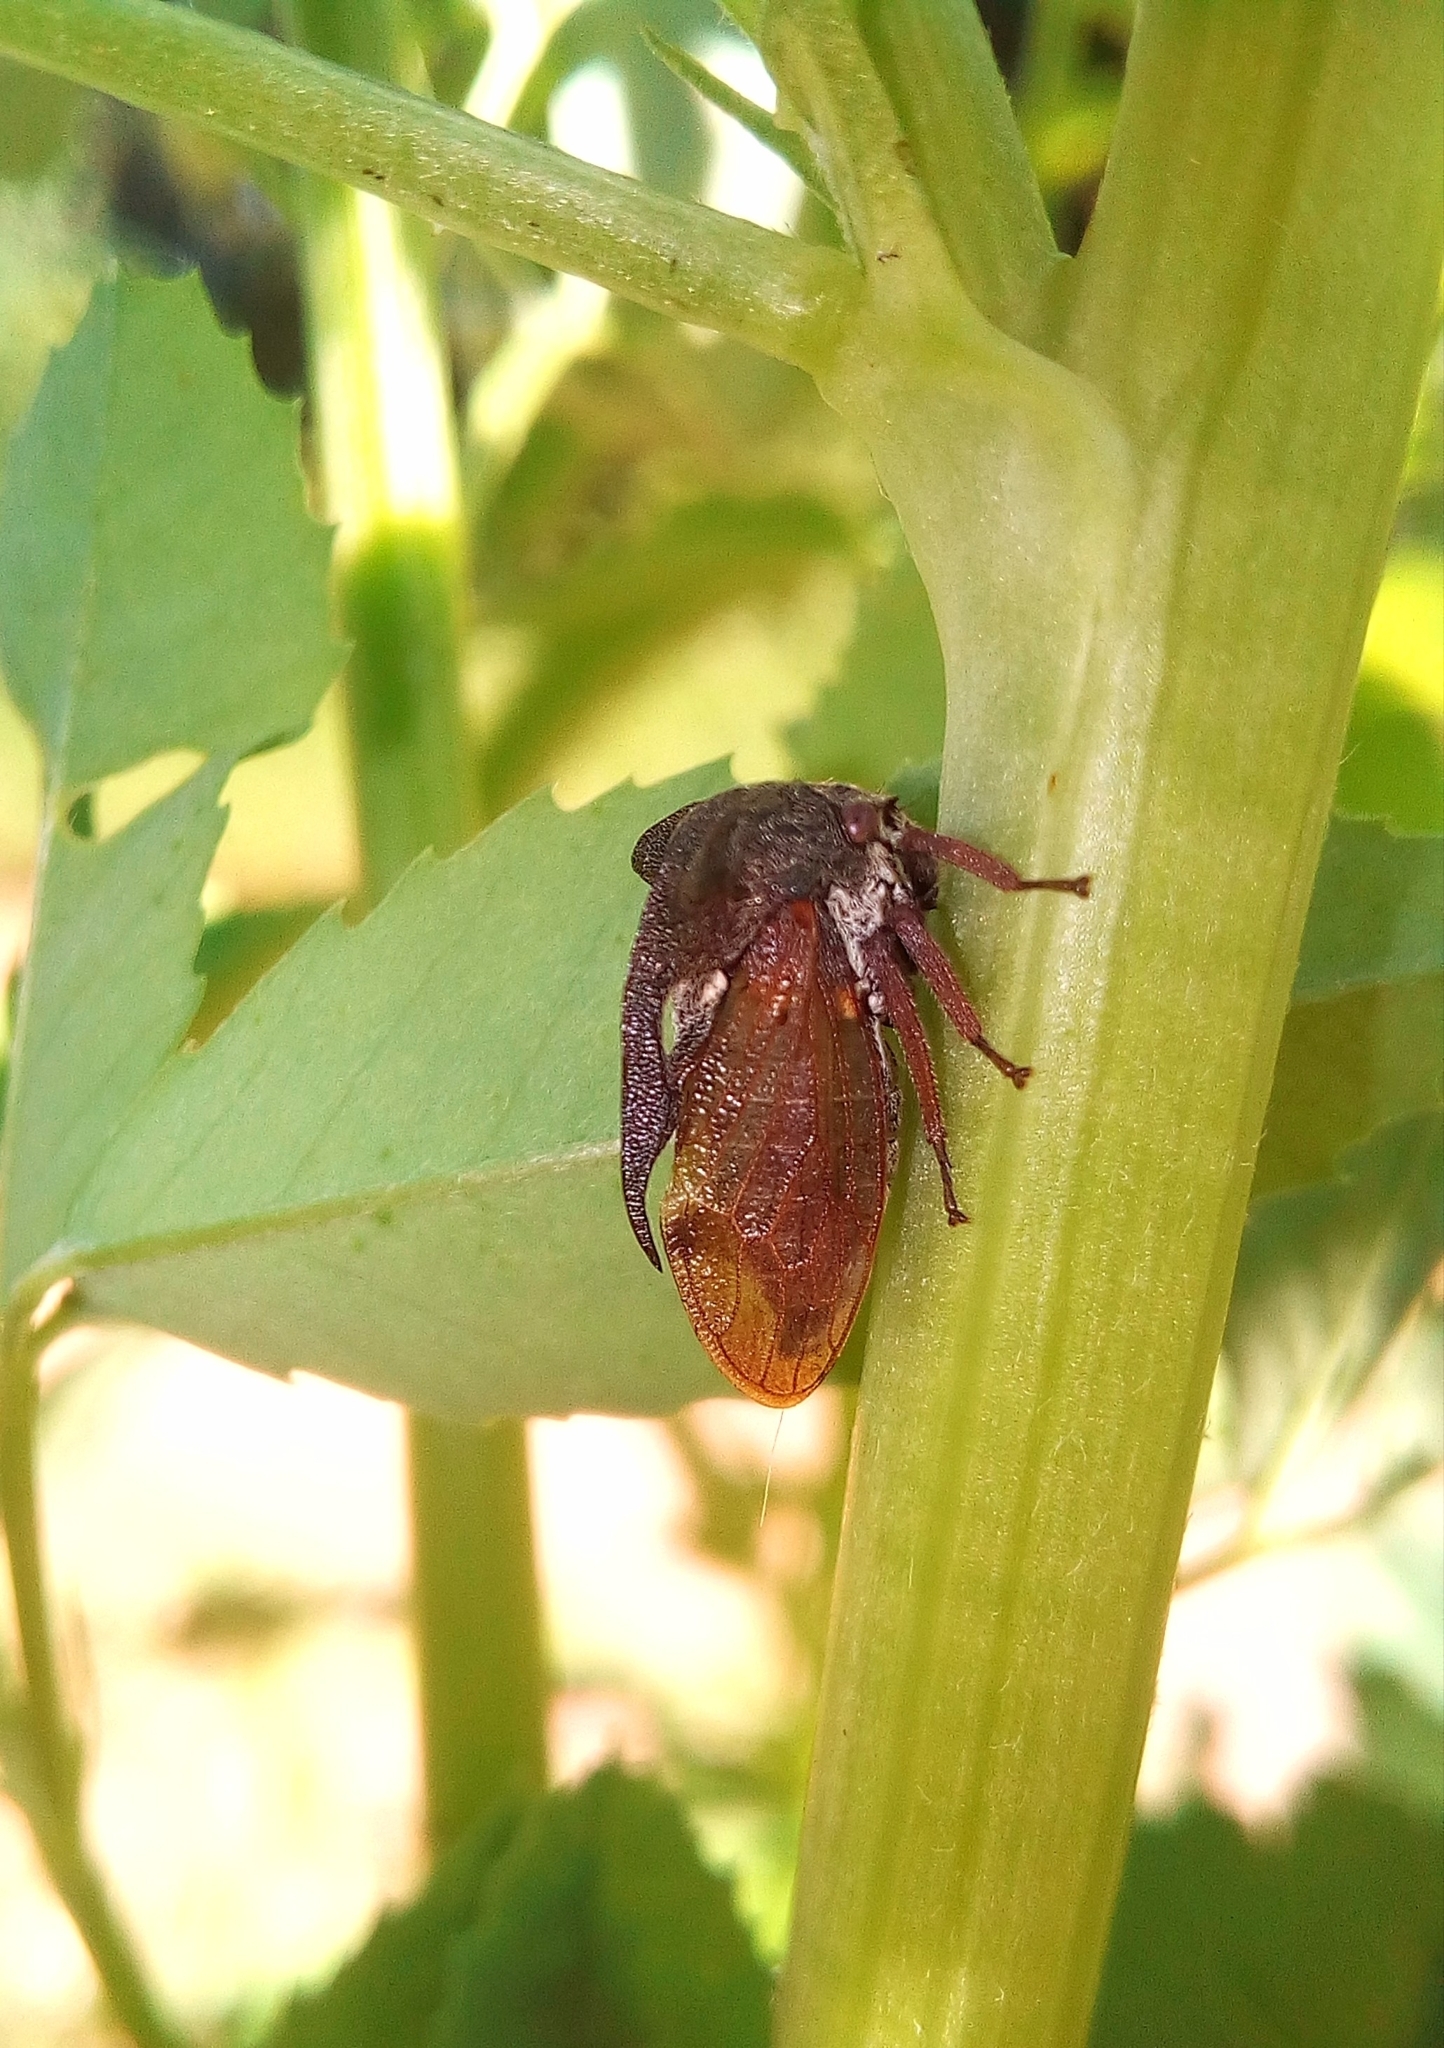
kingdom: Animalia
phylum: Arthropoda
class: Insecta
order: Hemiptera
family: Membracidae
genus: Centrotus
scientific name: Centrotus cornuta
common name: Treehopper
